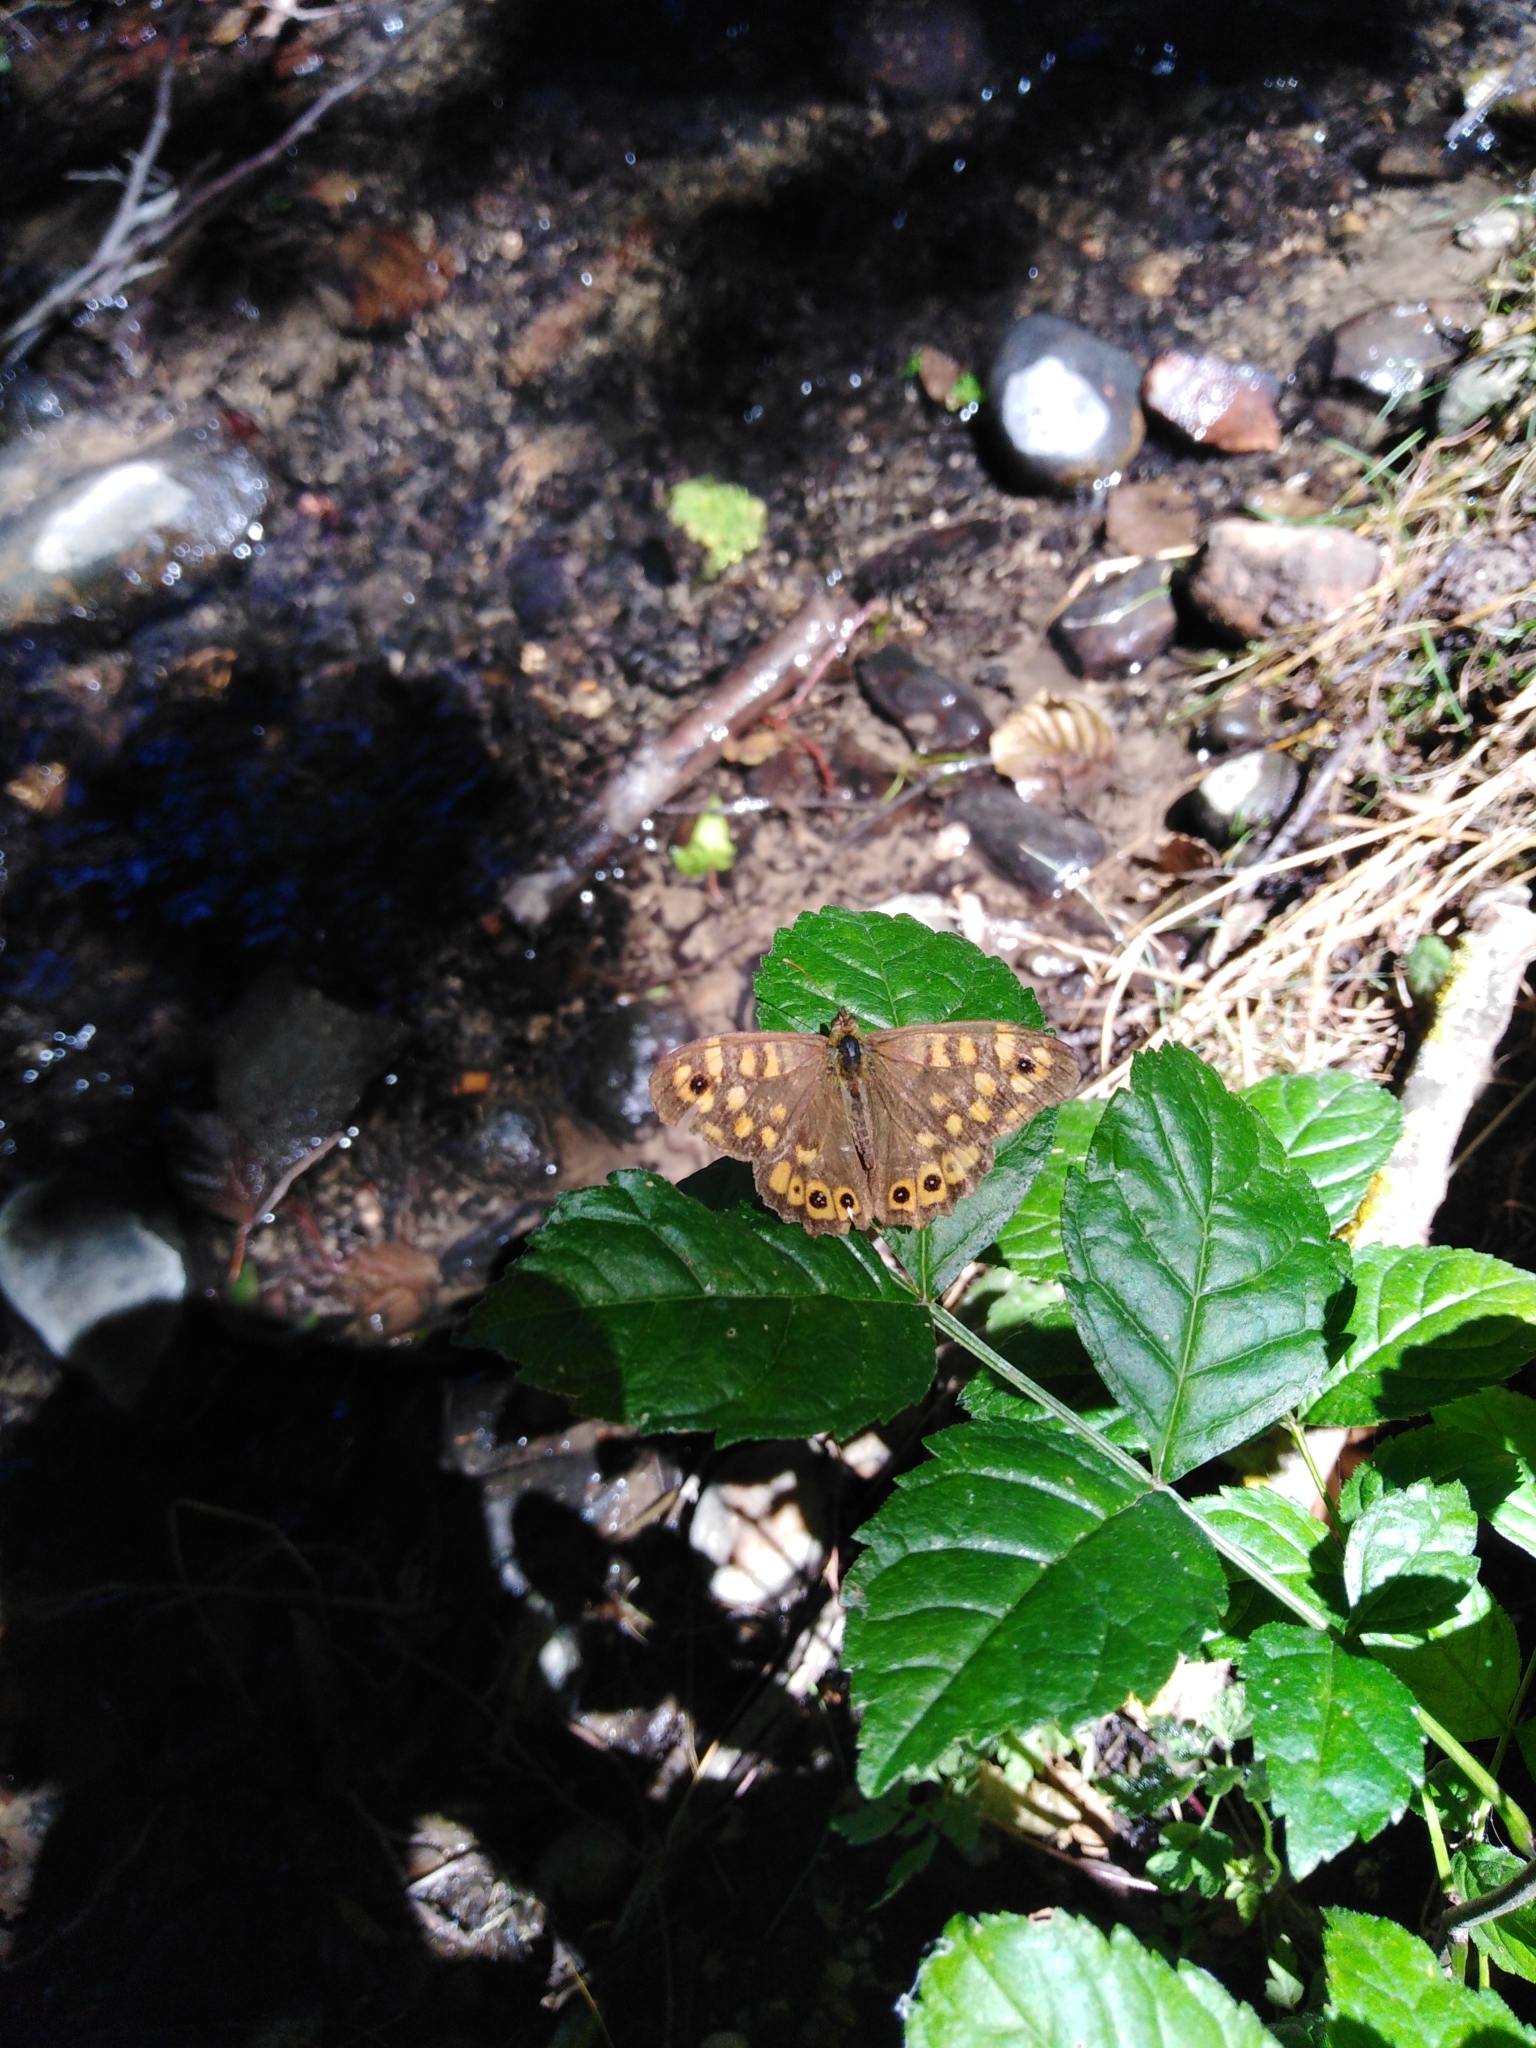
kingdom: Animalia
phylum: Arthropoda
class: Insecta
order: Lepidoptera
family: Nymphalidae
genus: Pararge
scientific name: Pararge aegeria
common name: Speckled wood
